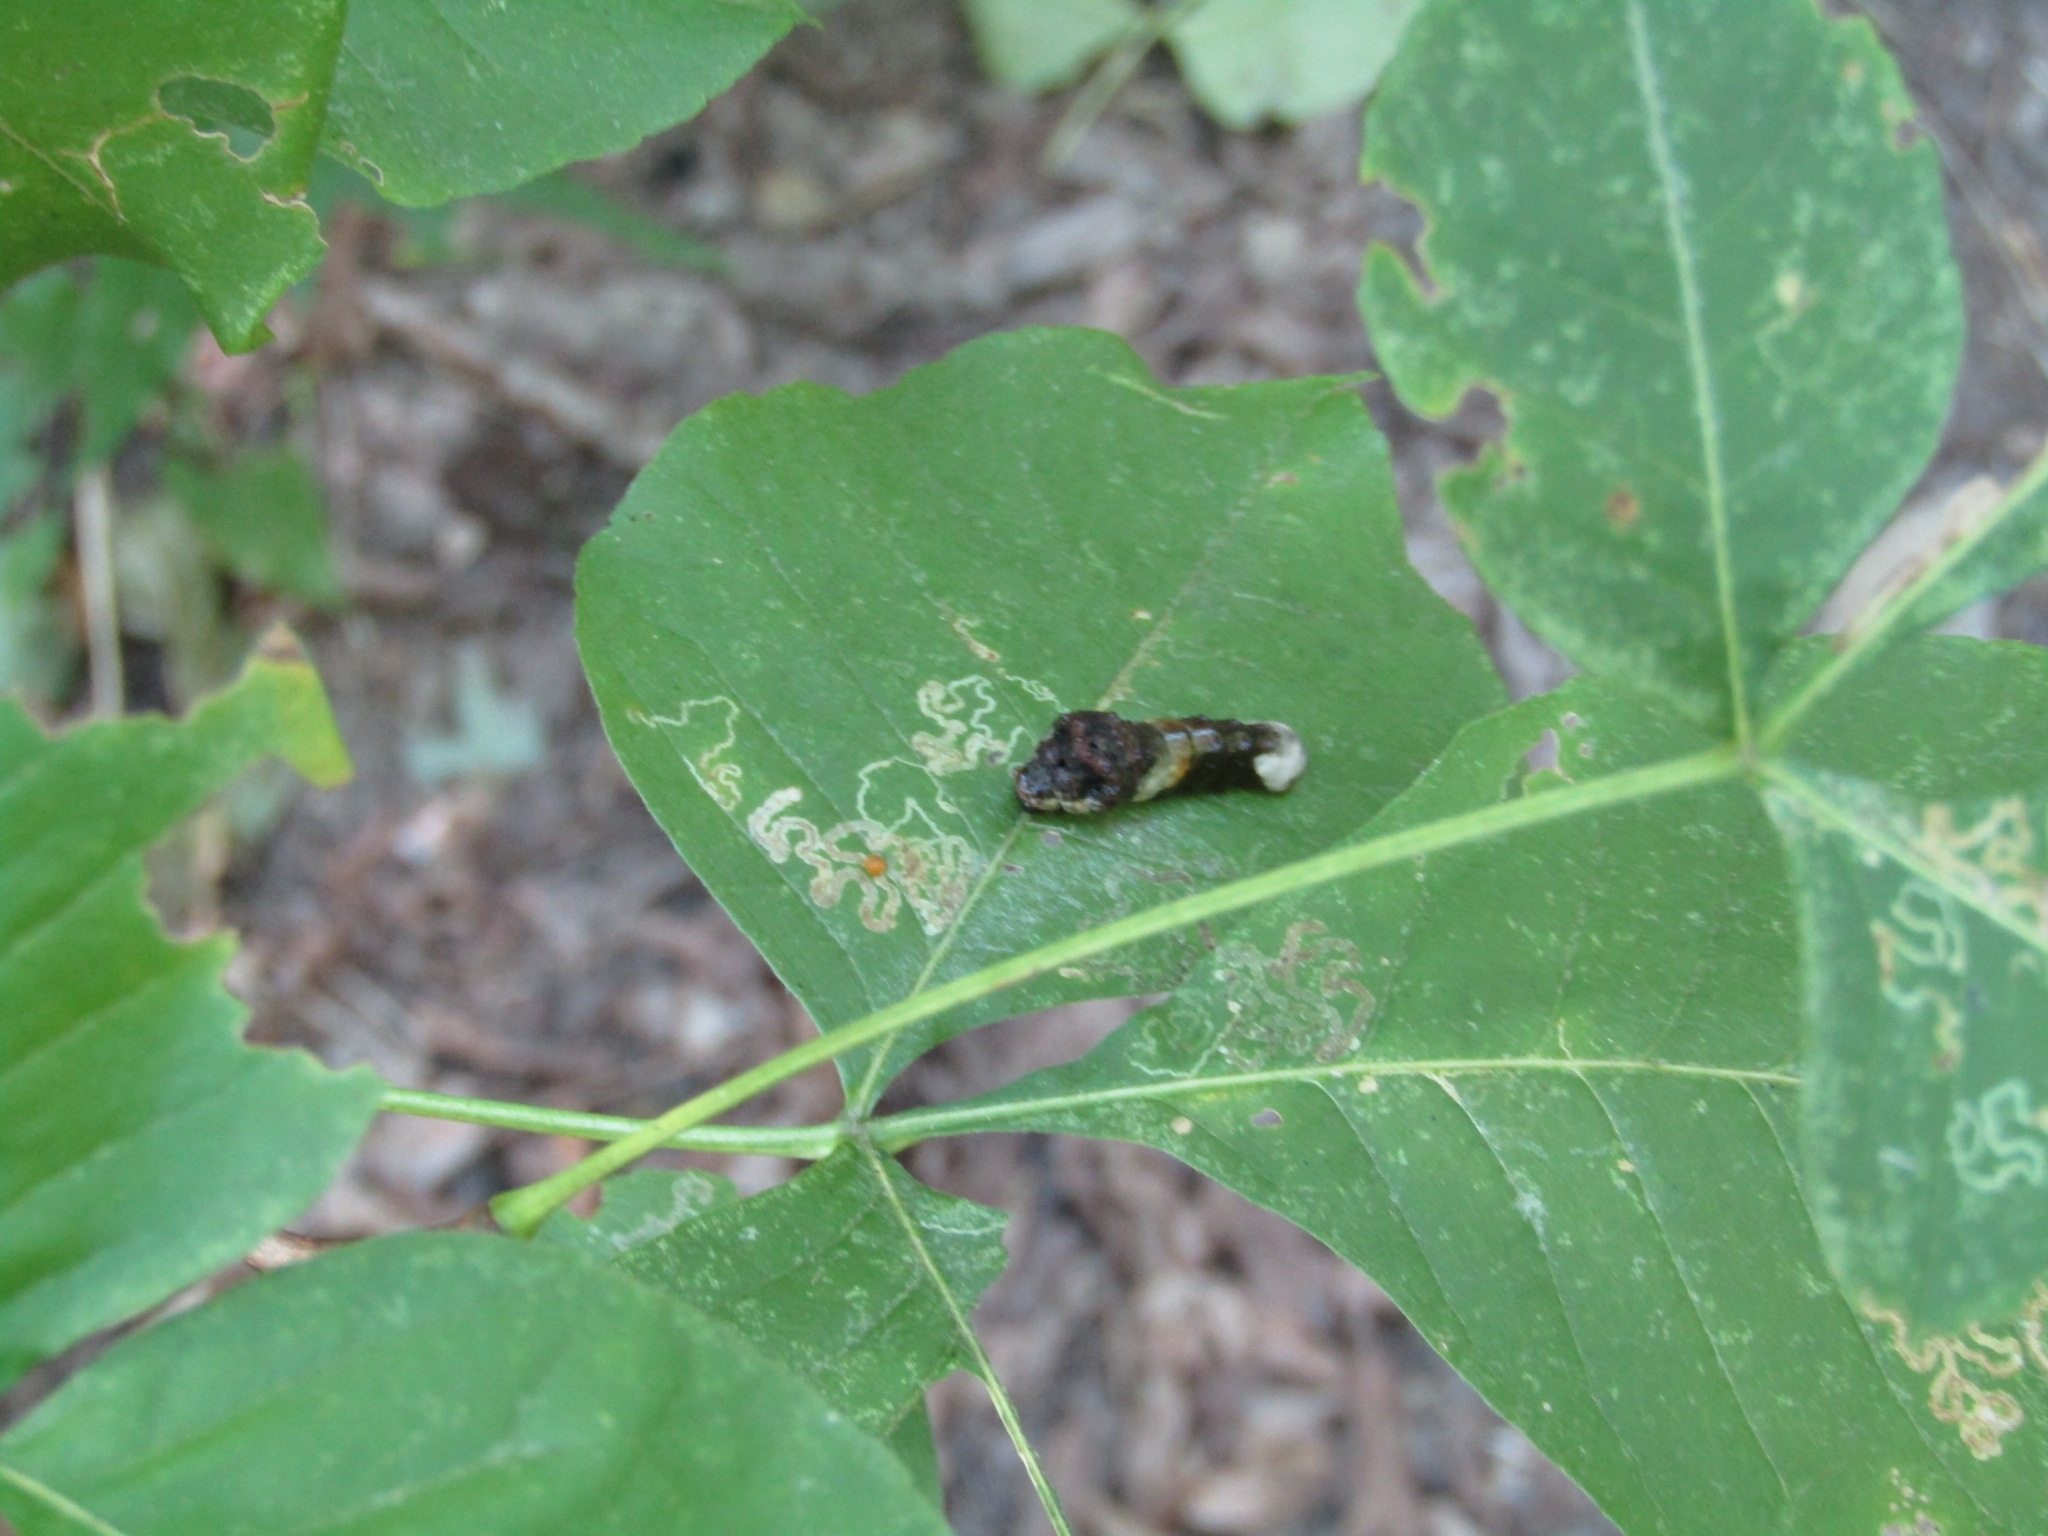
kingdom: Animalia
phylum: Arthropoda
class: Insecta
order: Lepidoptera
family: Papilionidae
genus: Papilio
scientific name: Papilio cresphontes
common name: Giant swallowtail
